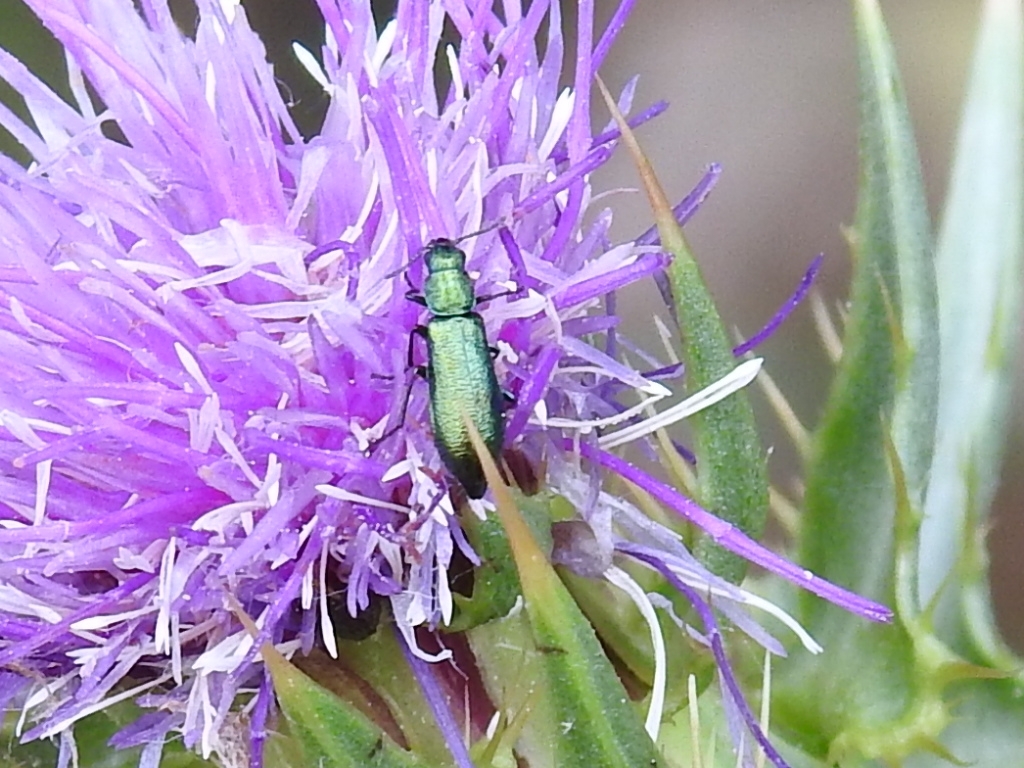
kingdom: Animalia
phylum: Arthropoda
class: Insecta
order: Coleoptera
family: Dasytidae
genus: Psilothrix
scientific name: Psilothrix viridicoerulea
